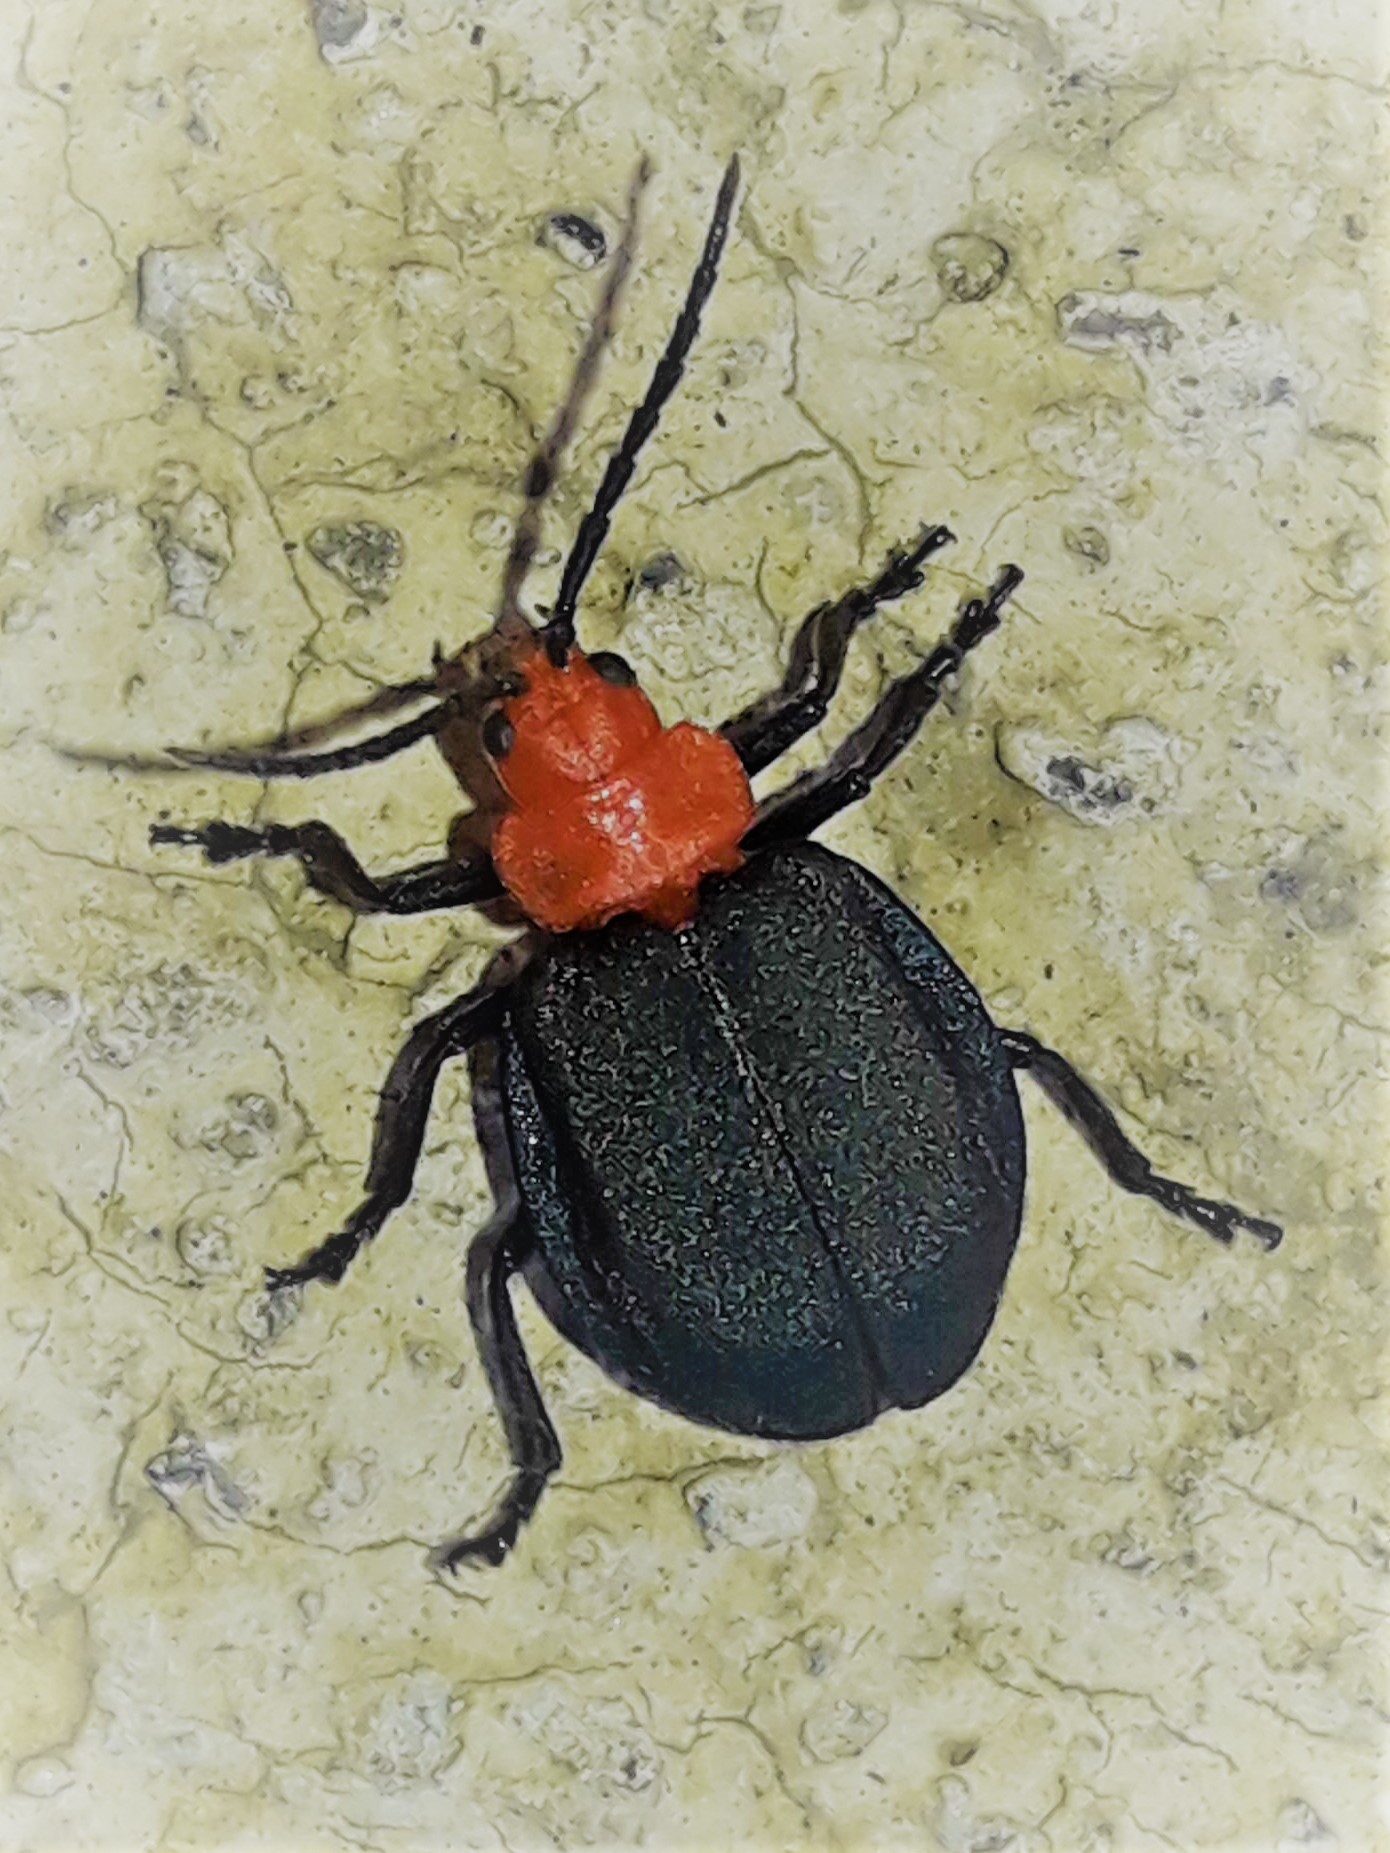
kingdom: Animalia
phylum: Arthropoda
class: Insecta
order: Coleoptera
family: Chrysomelidae
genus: Platycesta
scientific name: Platycesta
